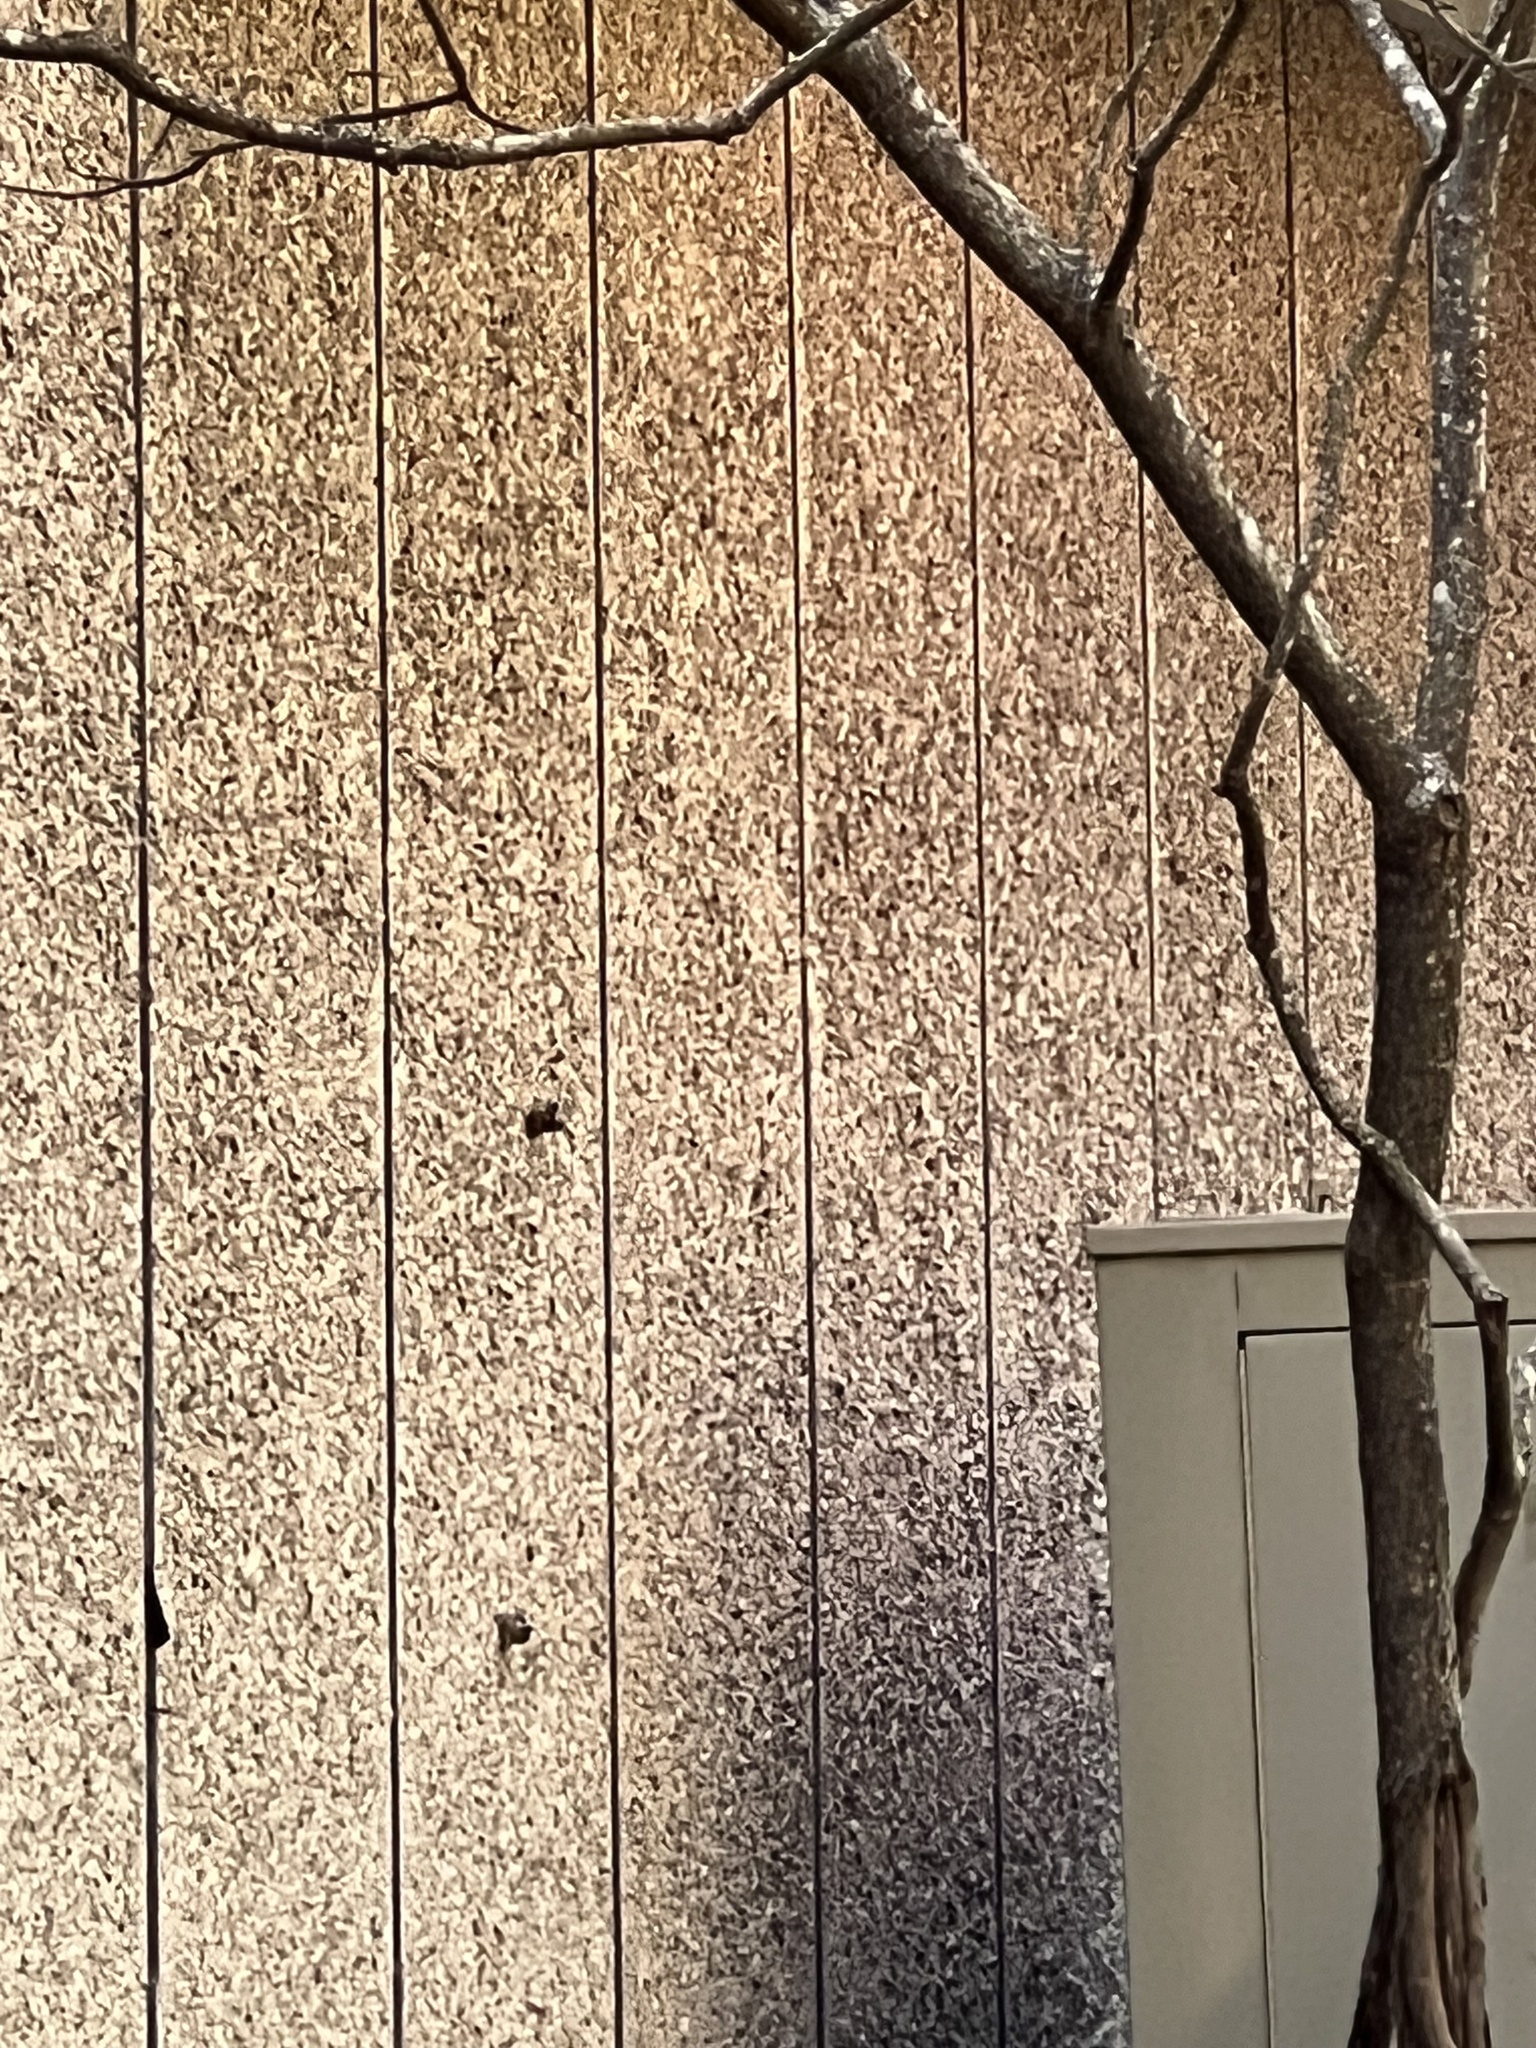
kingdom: Animalia
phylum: Chordata
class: Aves
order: Passeriformes
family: Sittidae
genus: Sitta
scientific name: Sitta canadensis
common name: Red-breasted nuthatch
